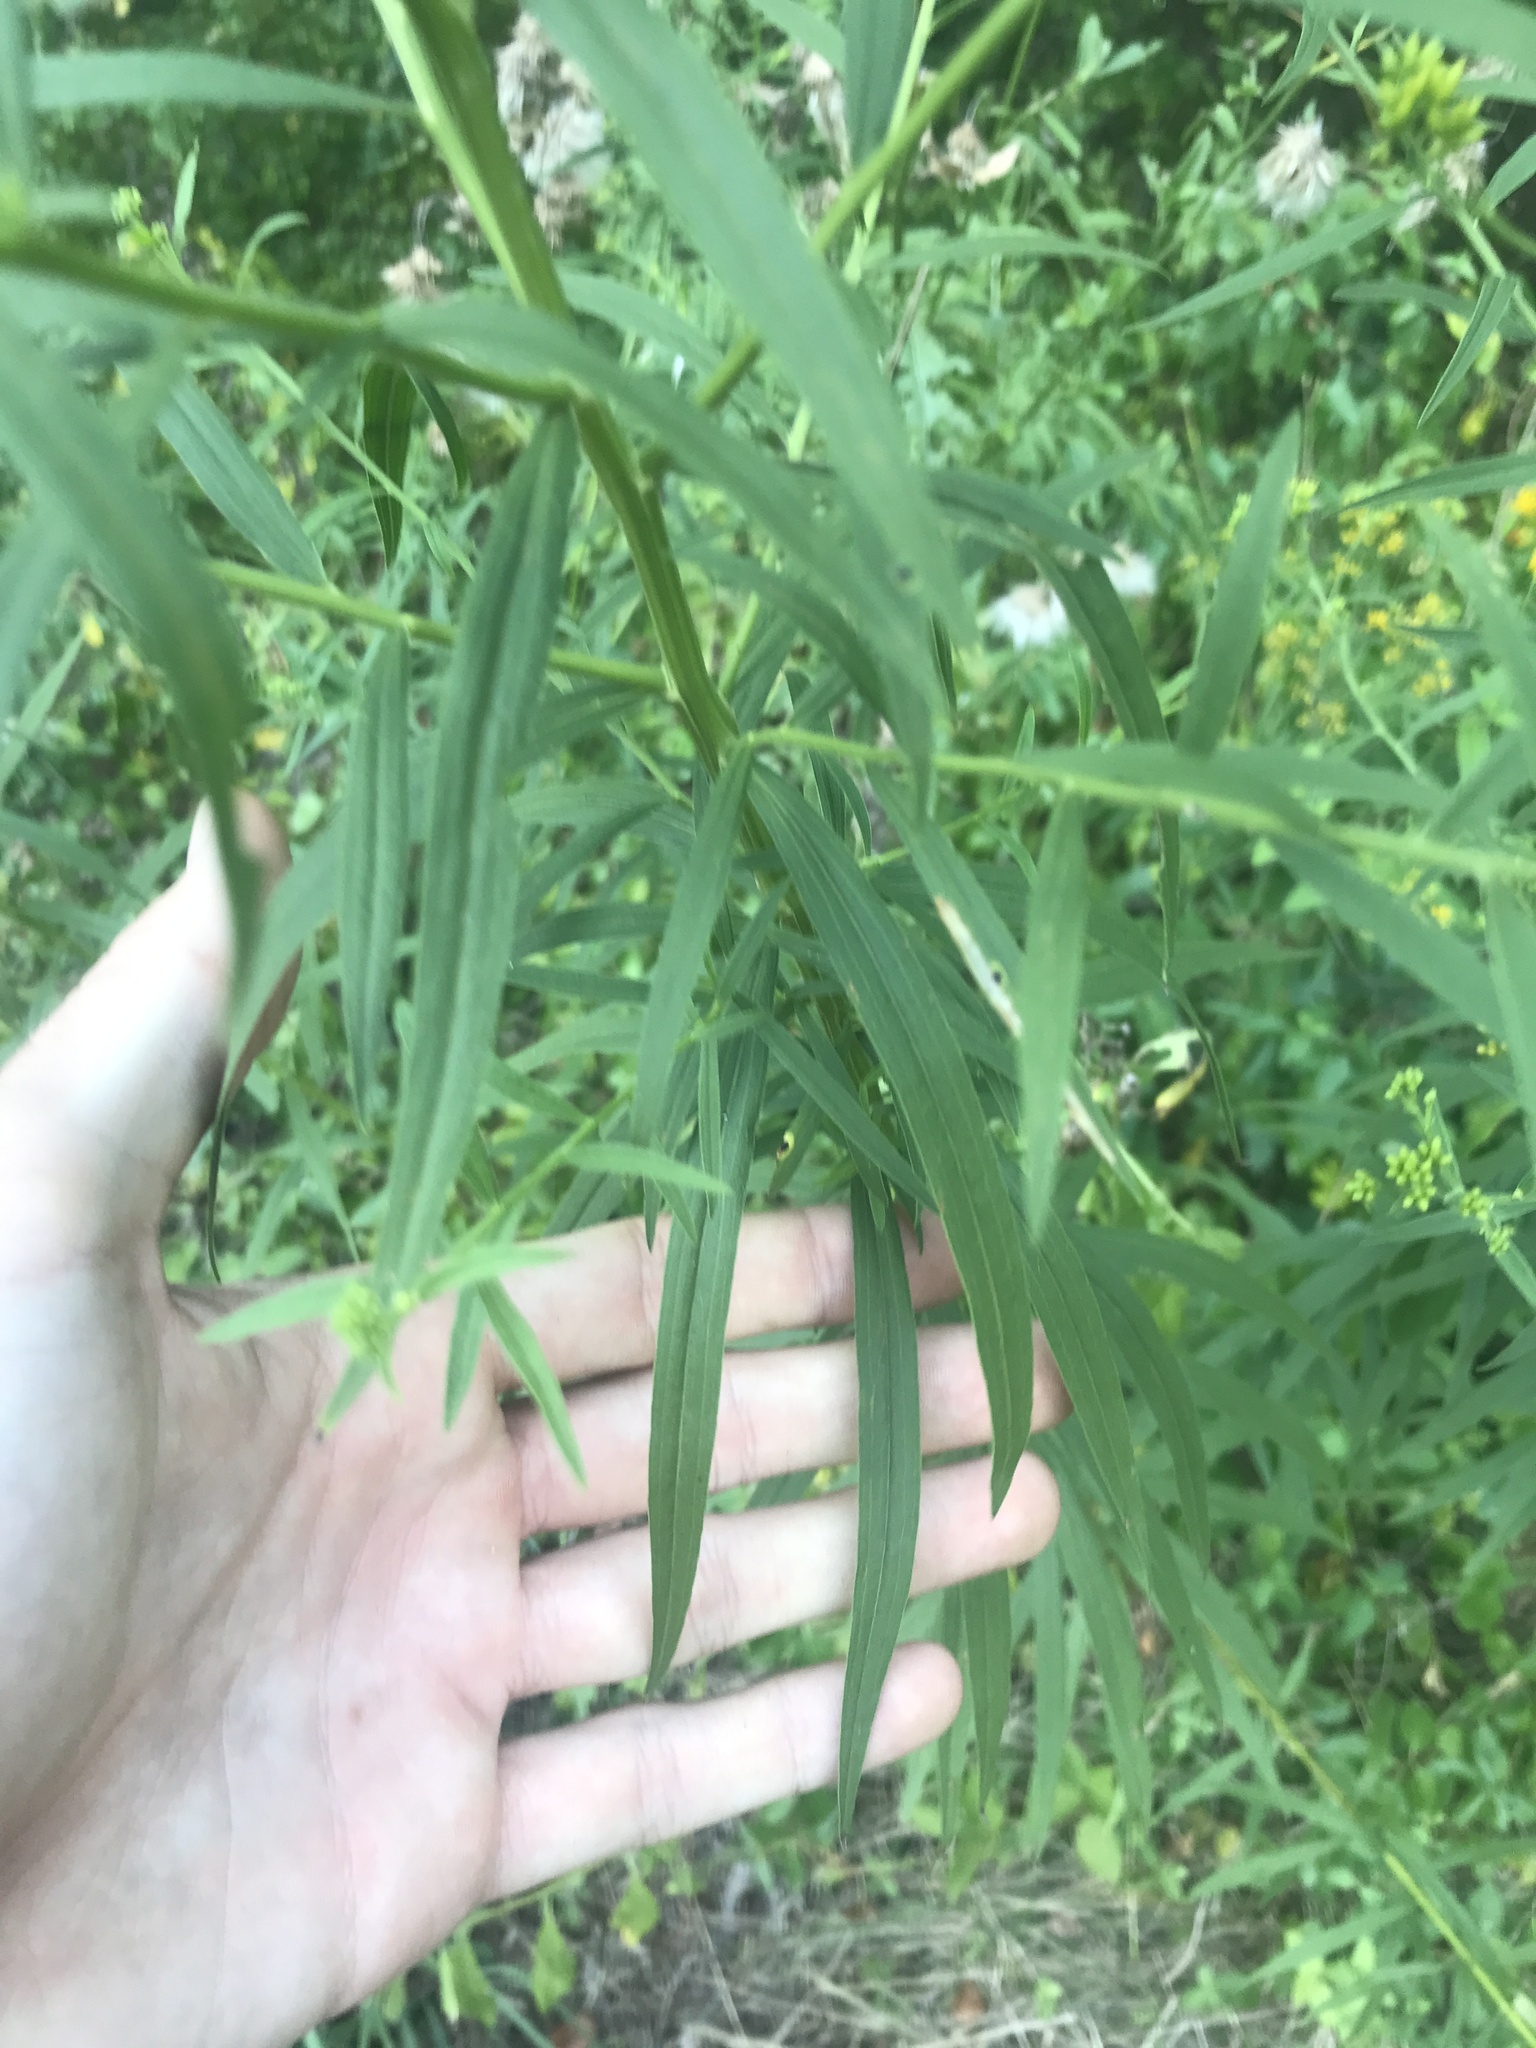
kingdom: Plantae
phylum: Tracheophyta
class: Magnoliopsida
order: Asterales
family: Asteraceae
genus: Euthamia
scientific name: Euthamia graminifolia
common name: Common goldentop
